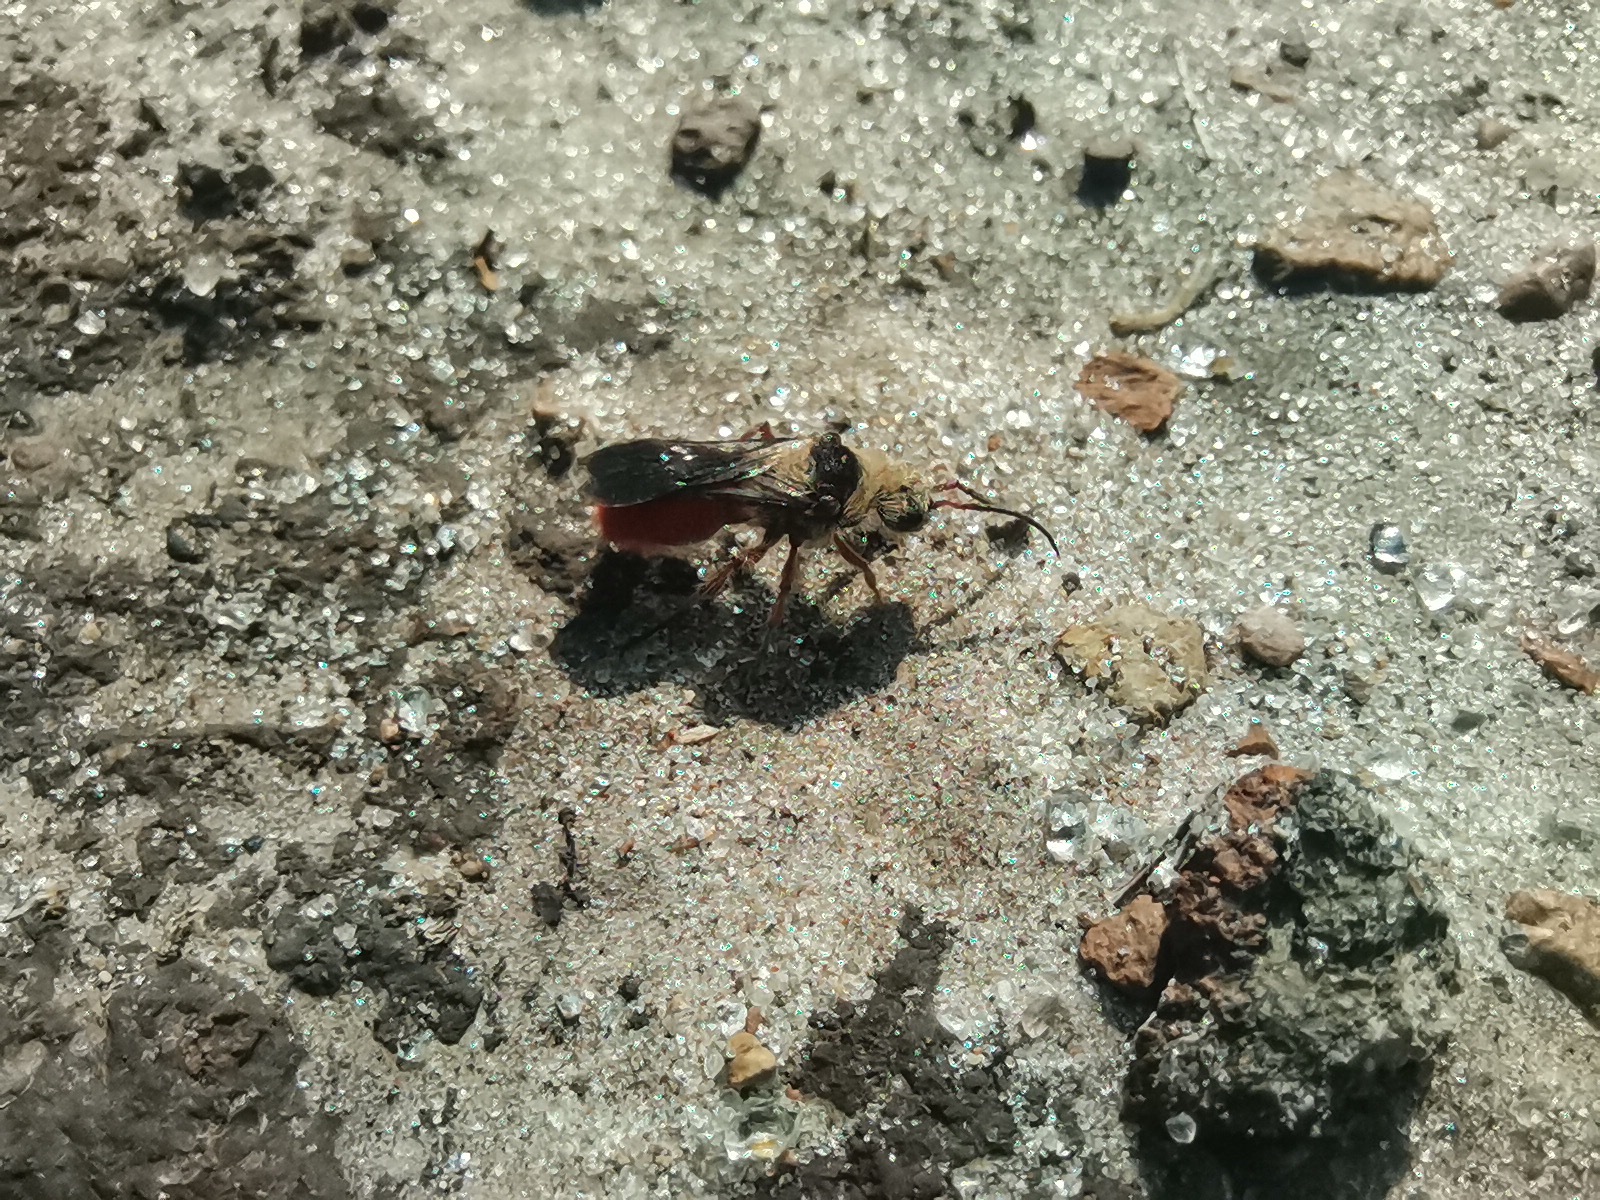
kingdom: Animalia
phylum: Arthropoda
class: Insecta
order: Hymenoptera
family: Mutillidae
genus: Dasymutilla
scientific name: Dasymutilla foxi
